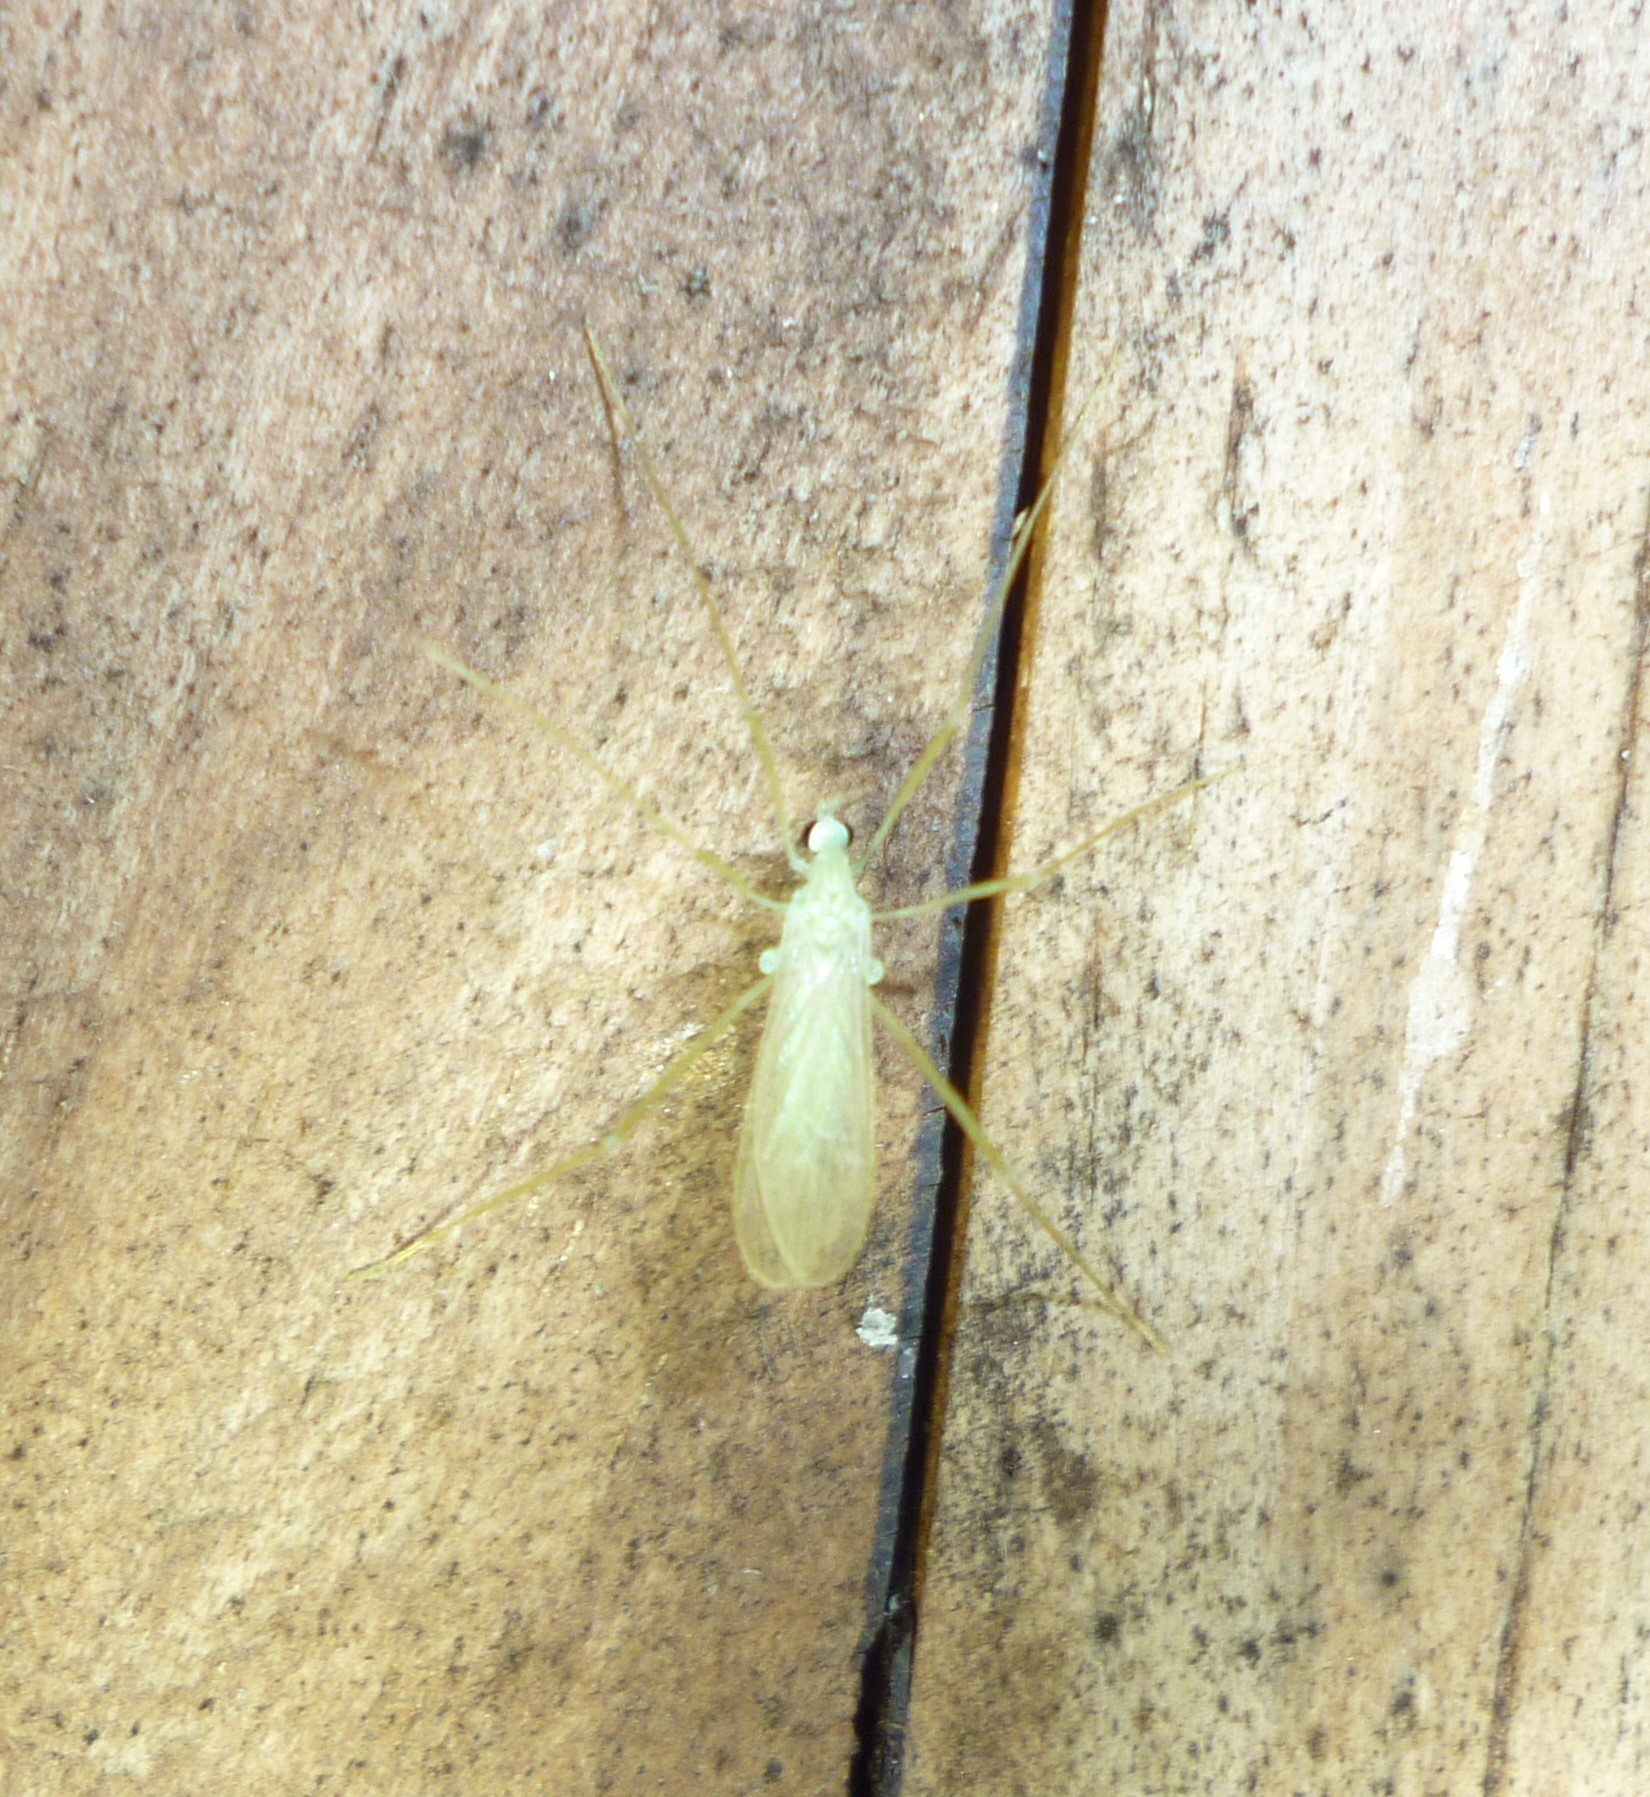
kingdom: Animalia
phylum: Arthropoda
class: Insecta
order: Diptera
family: Limoniidae
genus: Erioptera
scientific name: Erioptera
